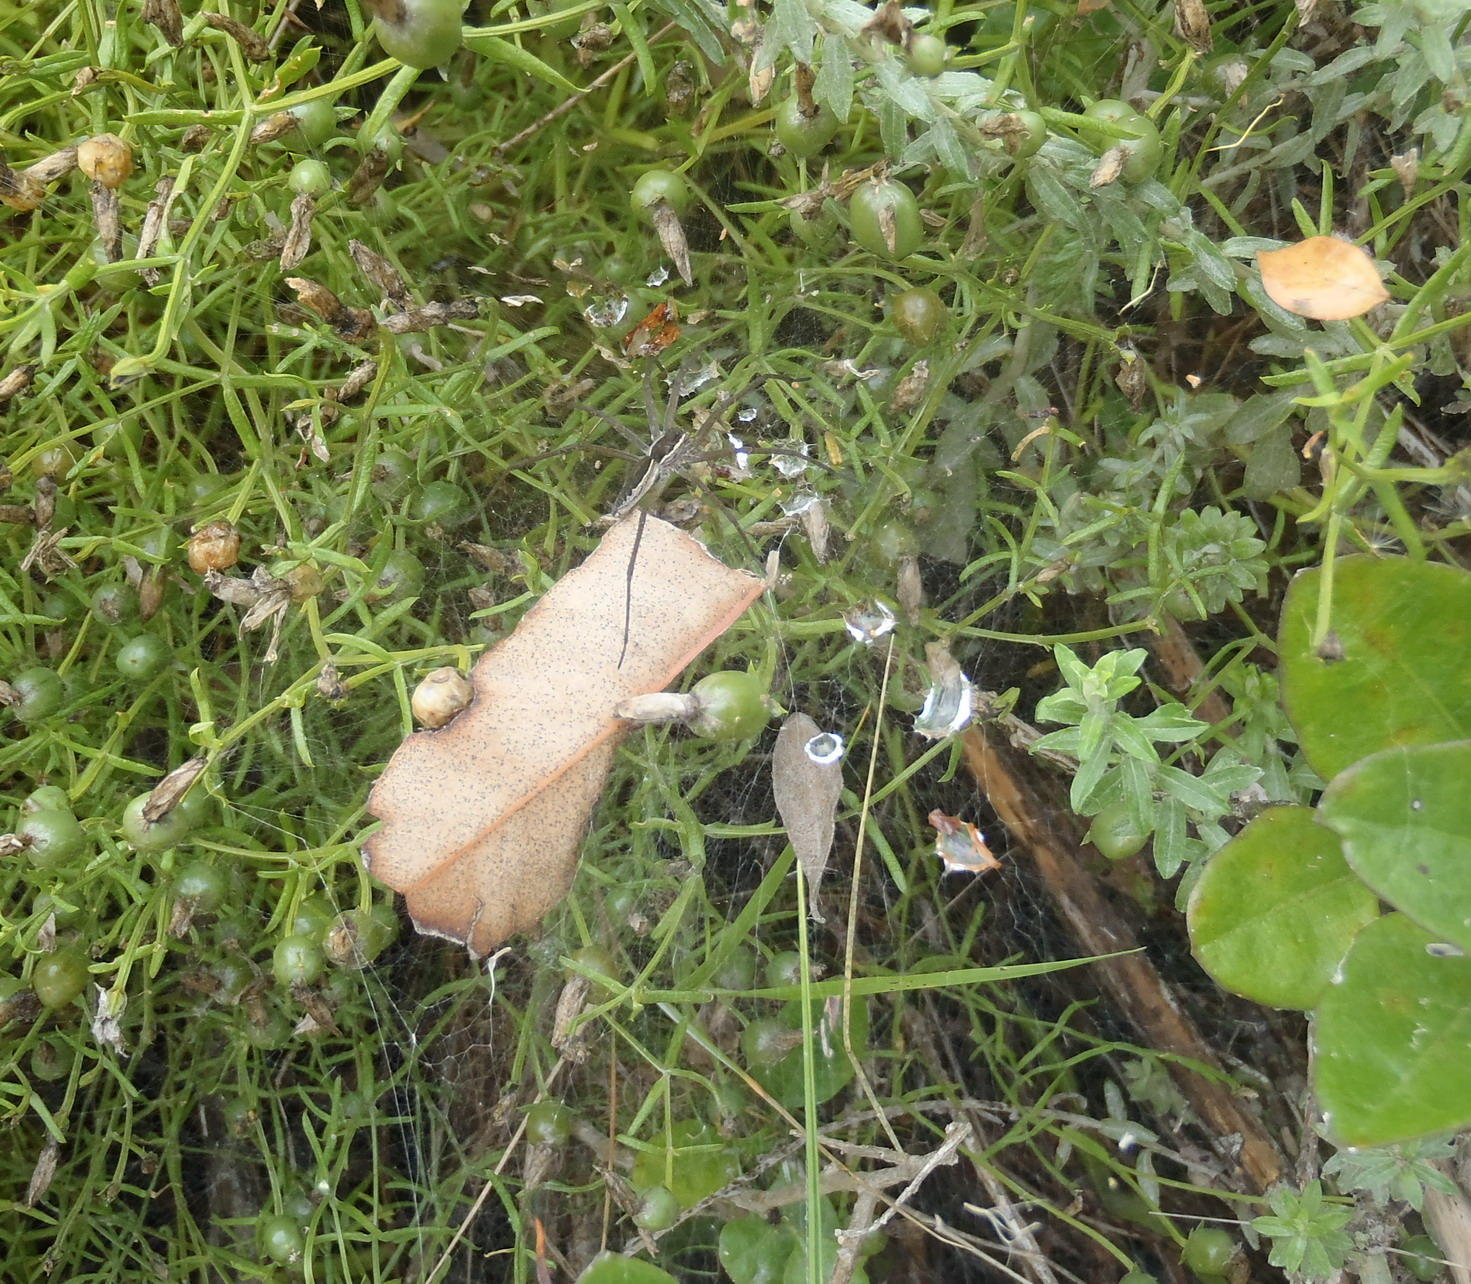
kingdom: Animalia
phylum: Arthropoda
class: Arachnida
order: Araneae
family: Pisauridae
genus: Euprosthenopsis
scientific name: Euprosthenopsis pulchella
